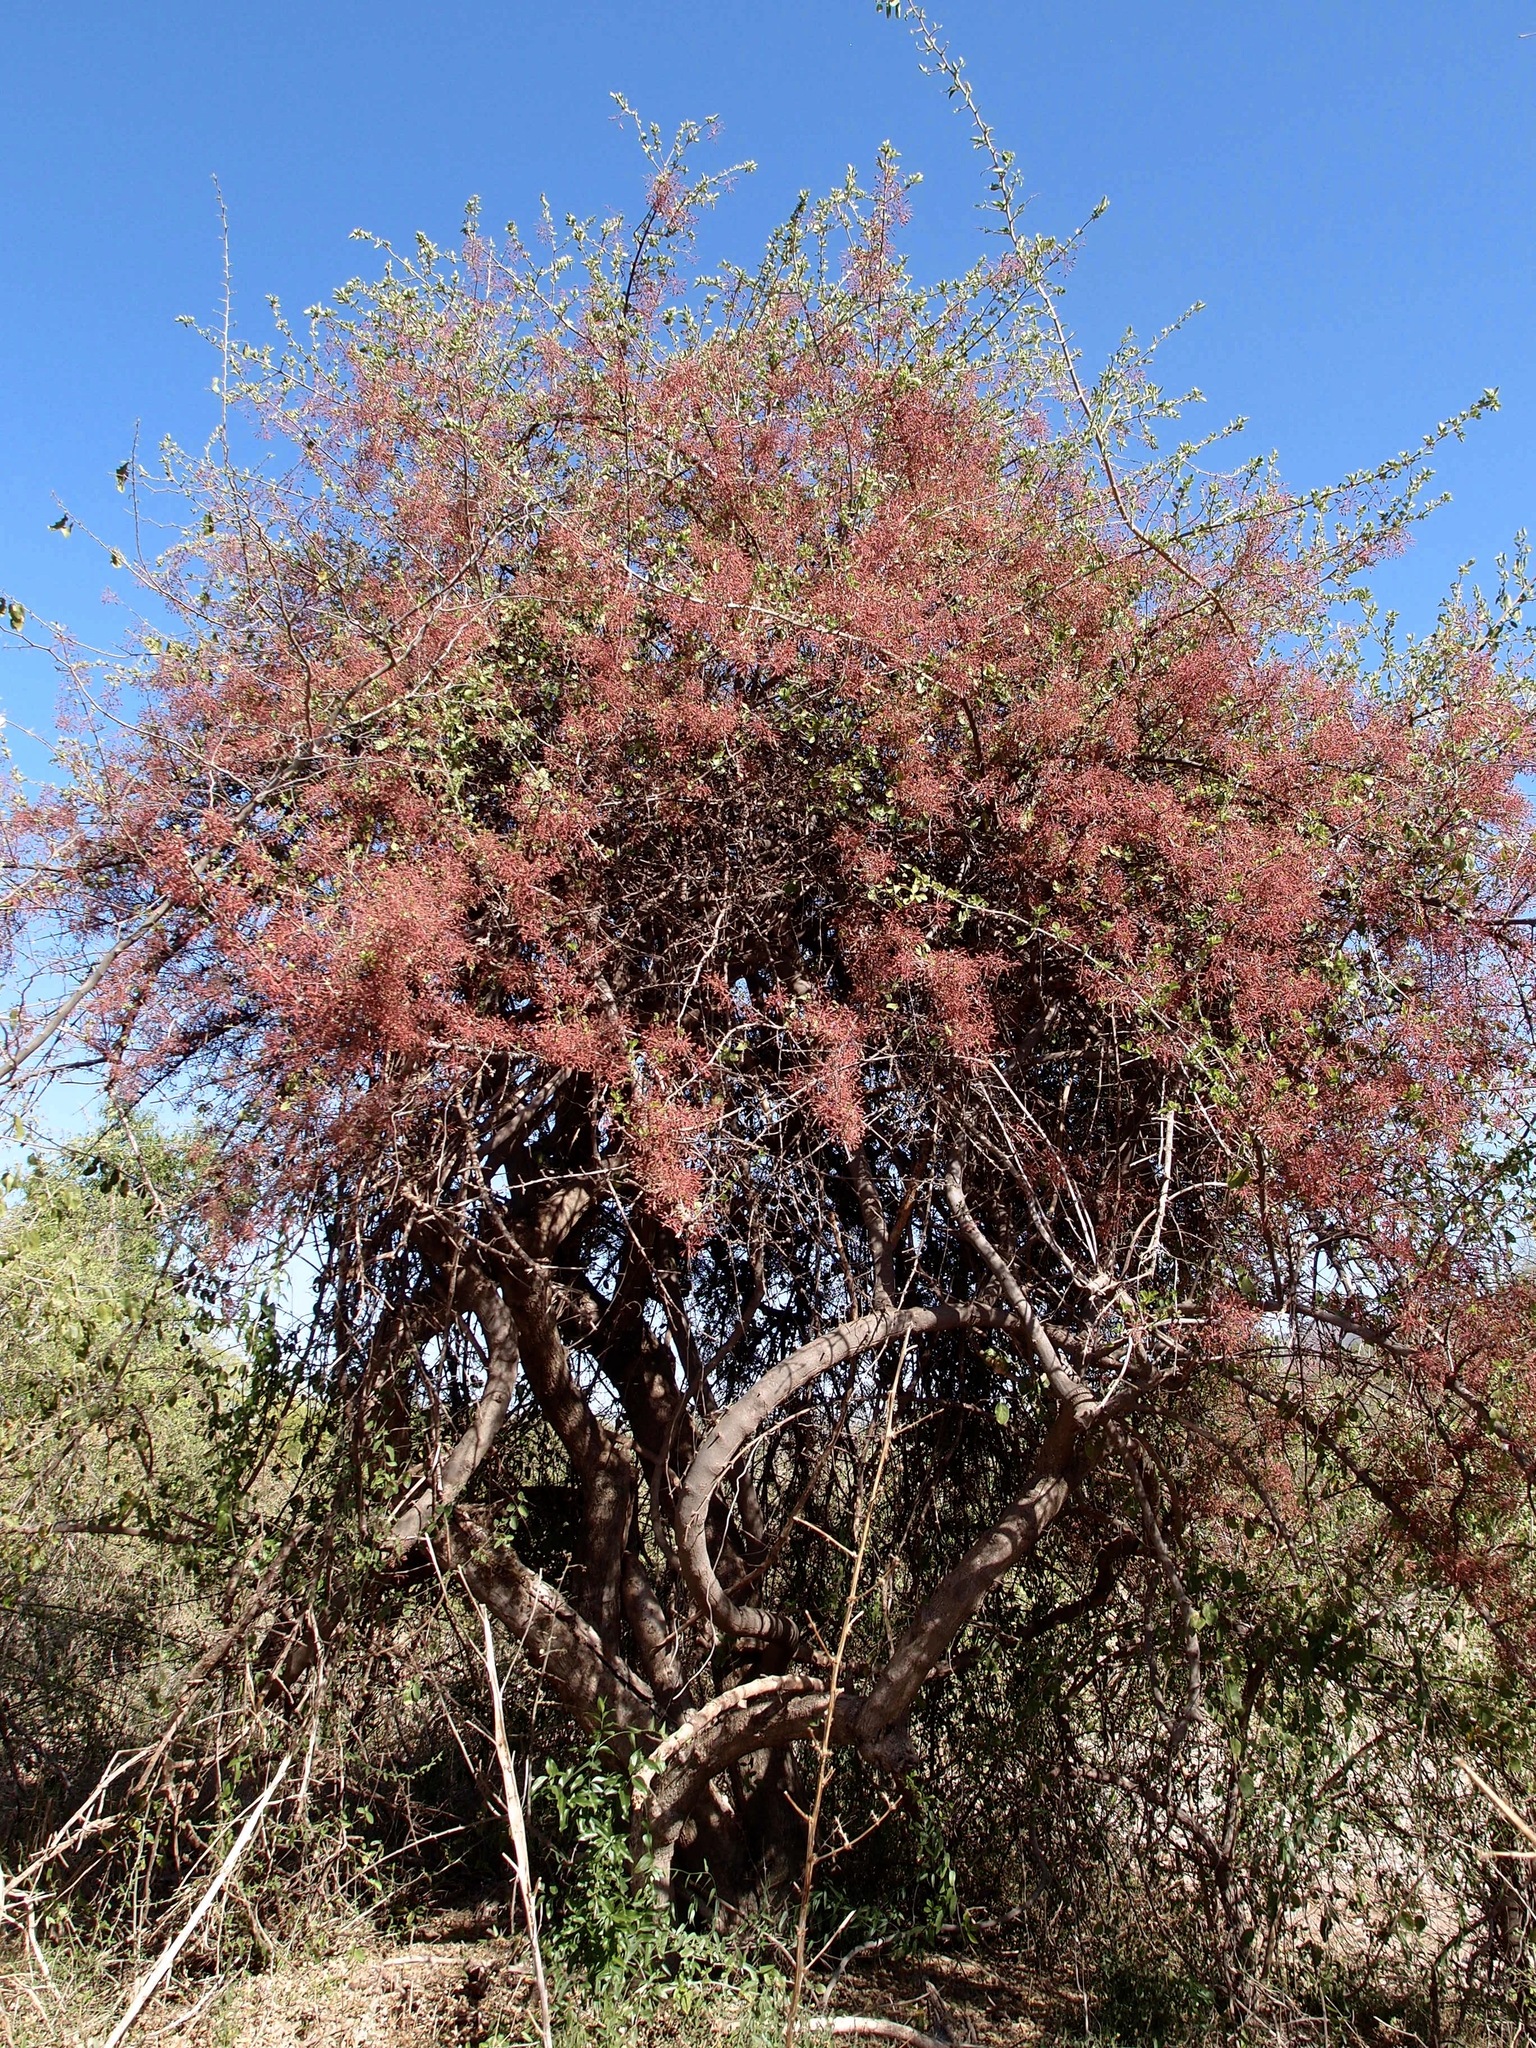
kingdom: Plantae
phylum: Tracheophyta
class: Magnoliopsida
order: Caryophyllales
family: Nyctaginaceae
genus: Pisonia
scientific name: Pisonia capitata
